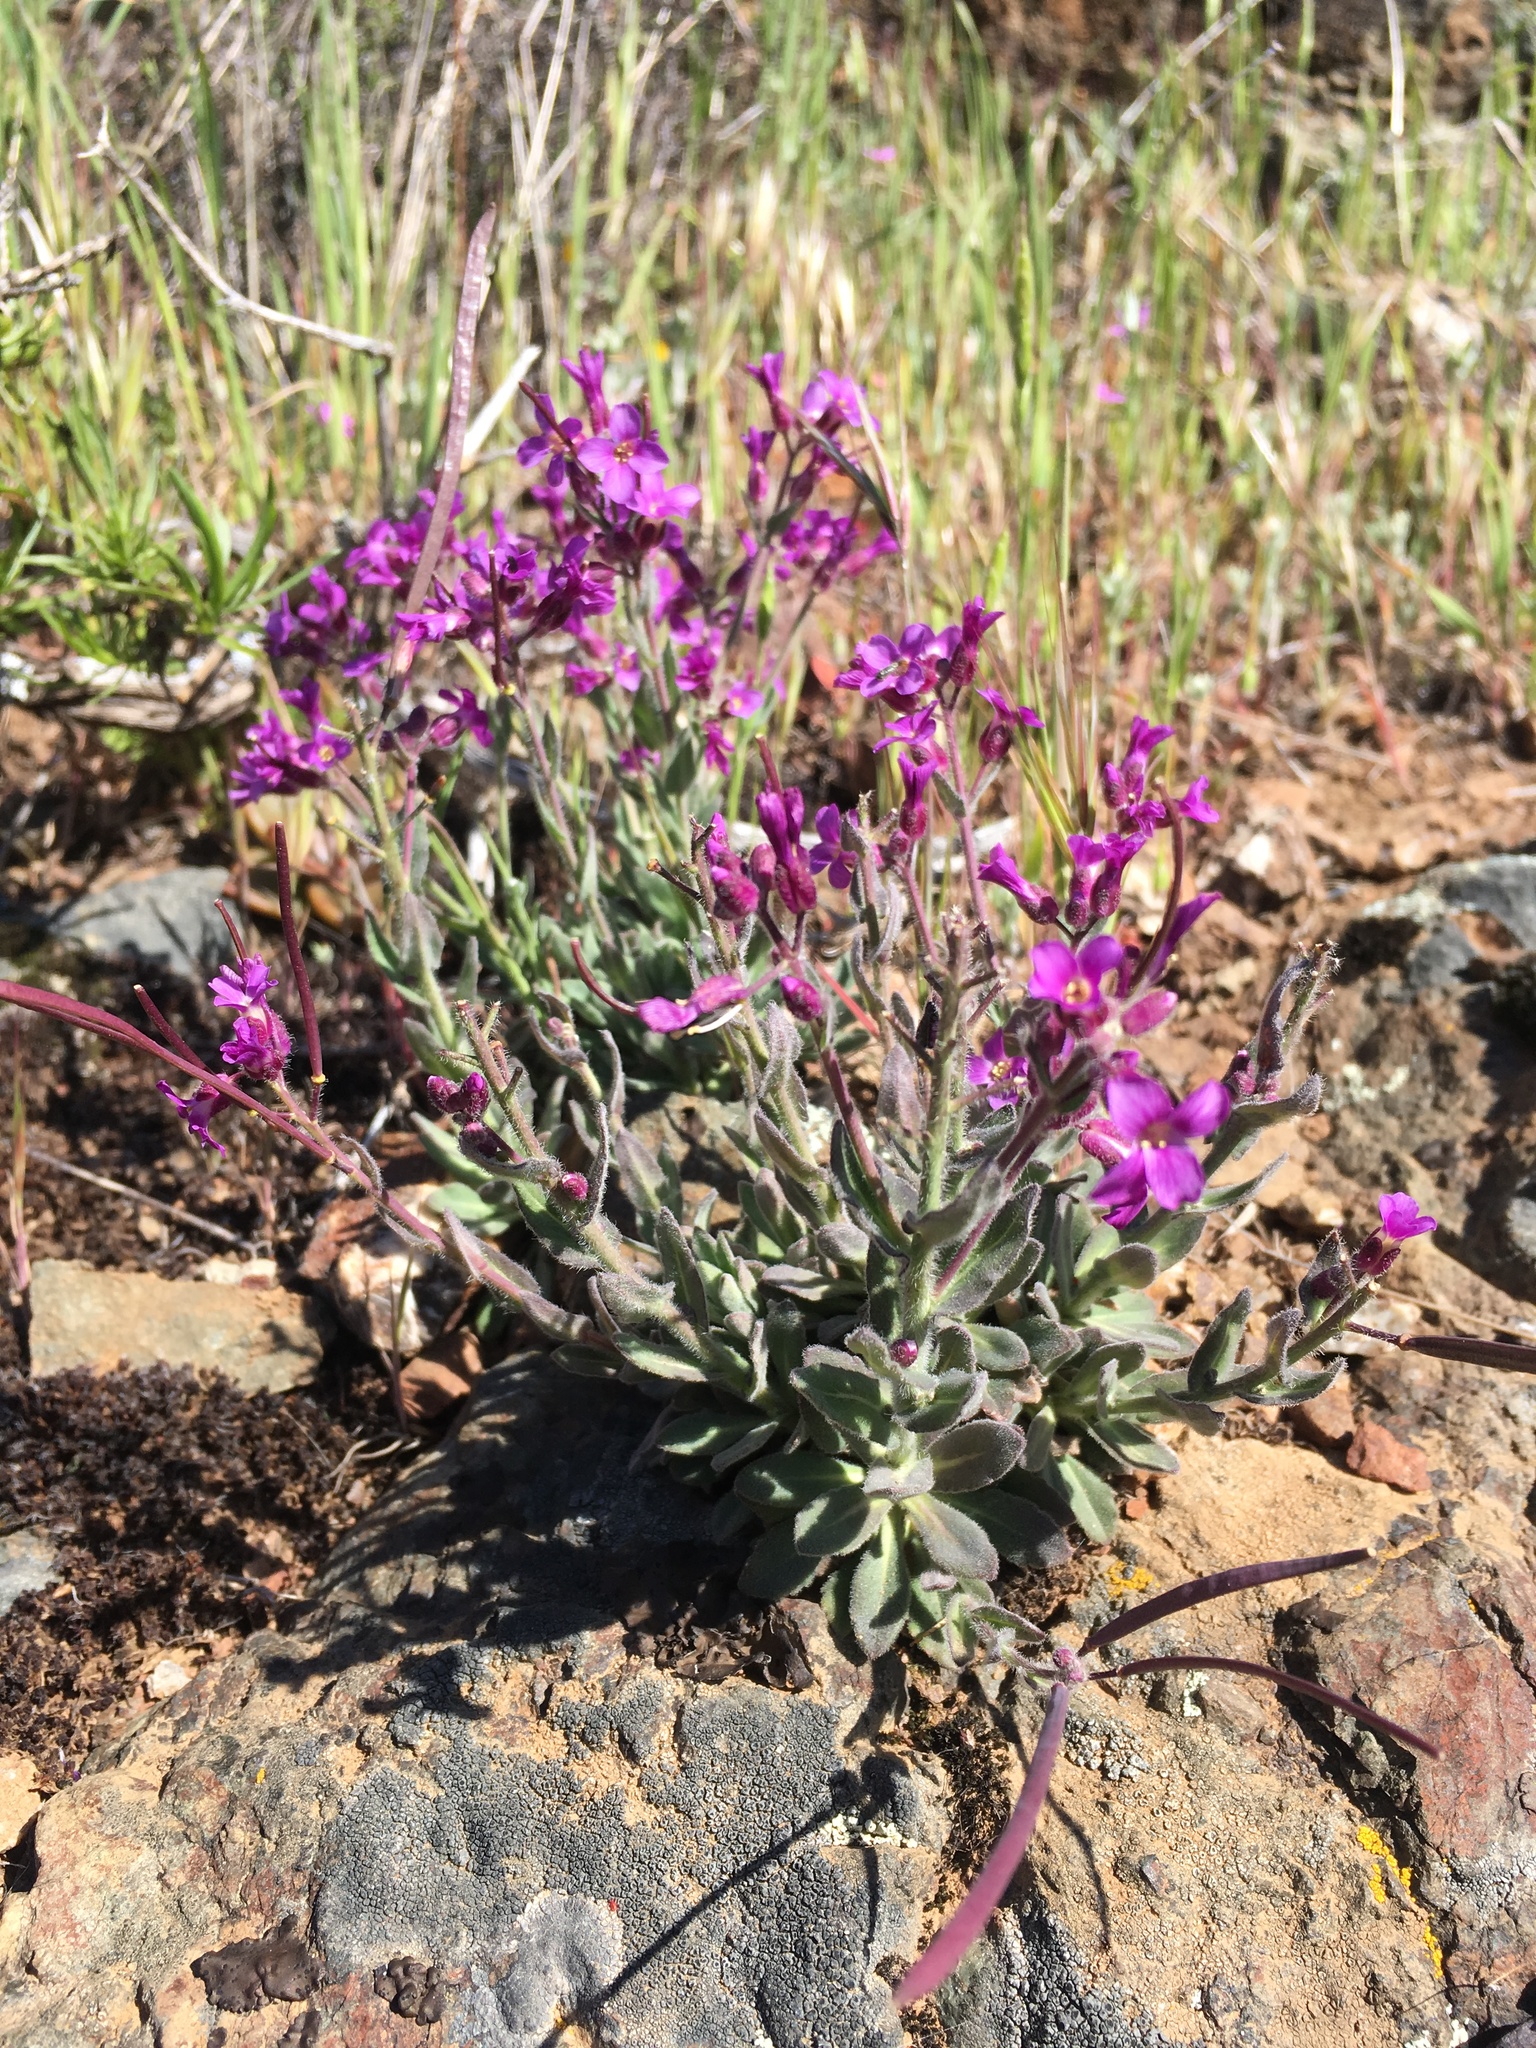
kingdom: Plantae
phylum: Tracheophyta
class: Magnoliopsida
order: Brassicales
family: Brassicaceae
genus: Boechera
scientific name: Boechera breweri
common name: Brewer's rockcress
